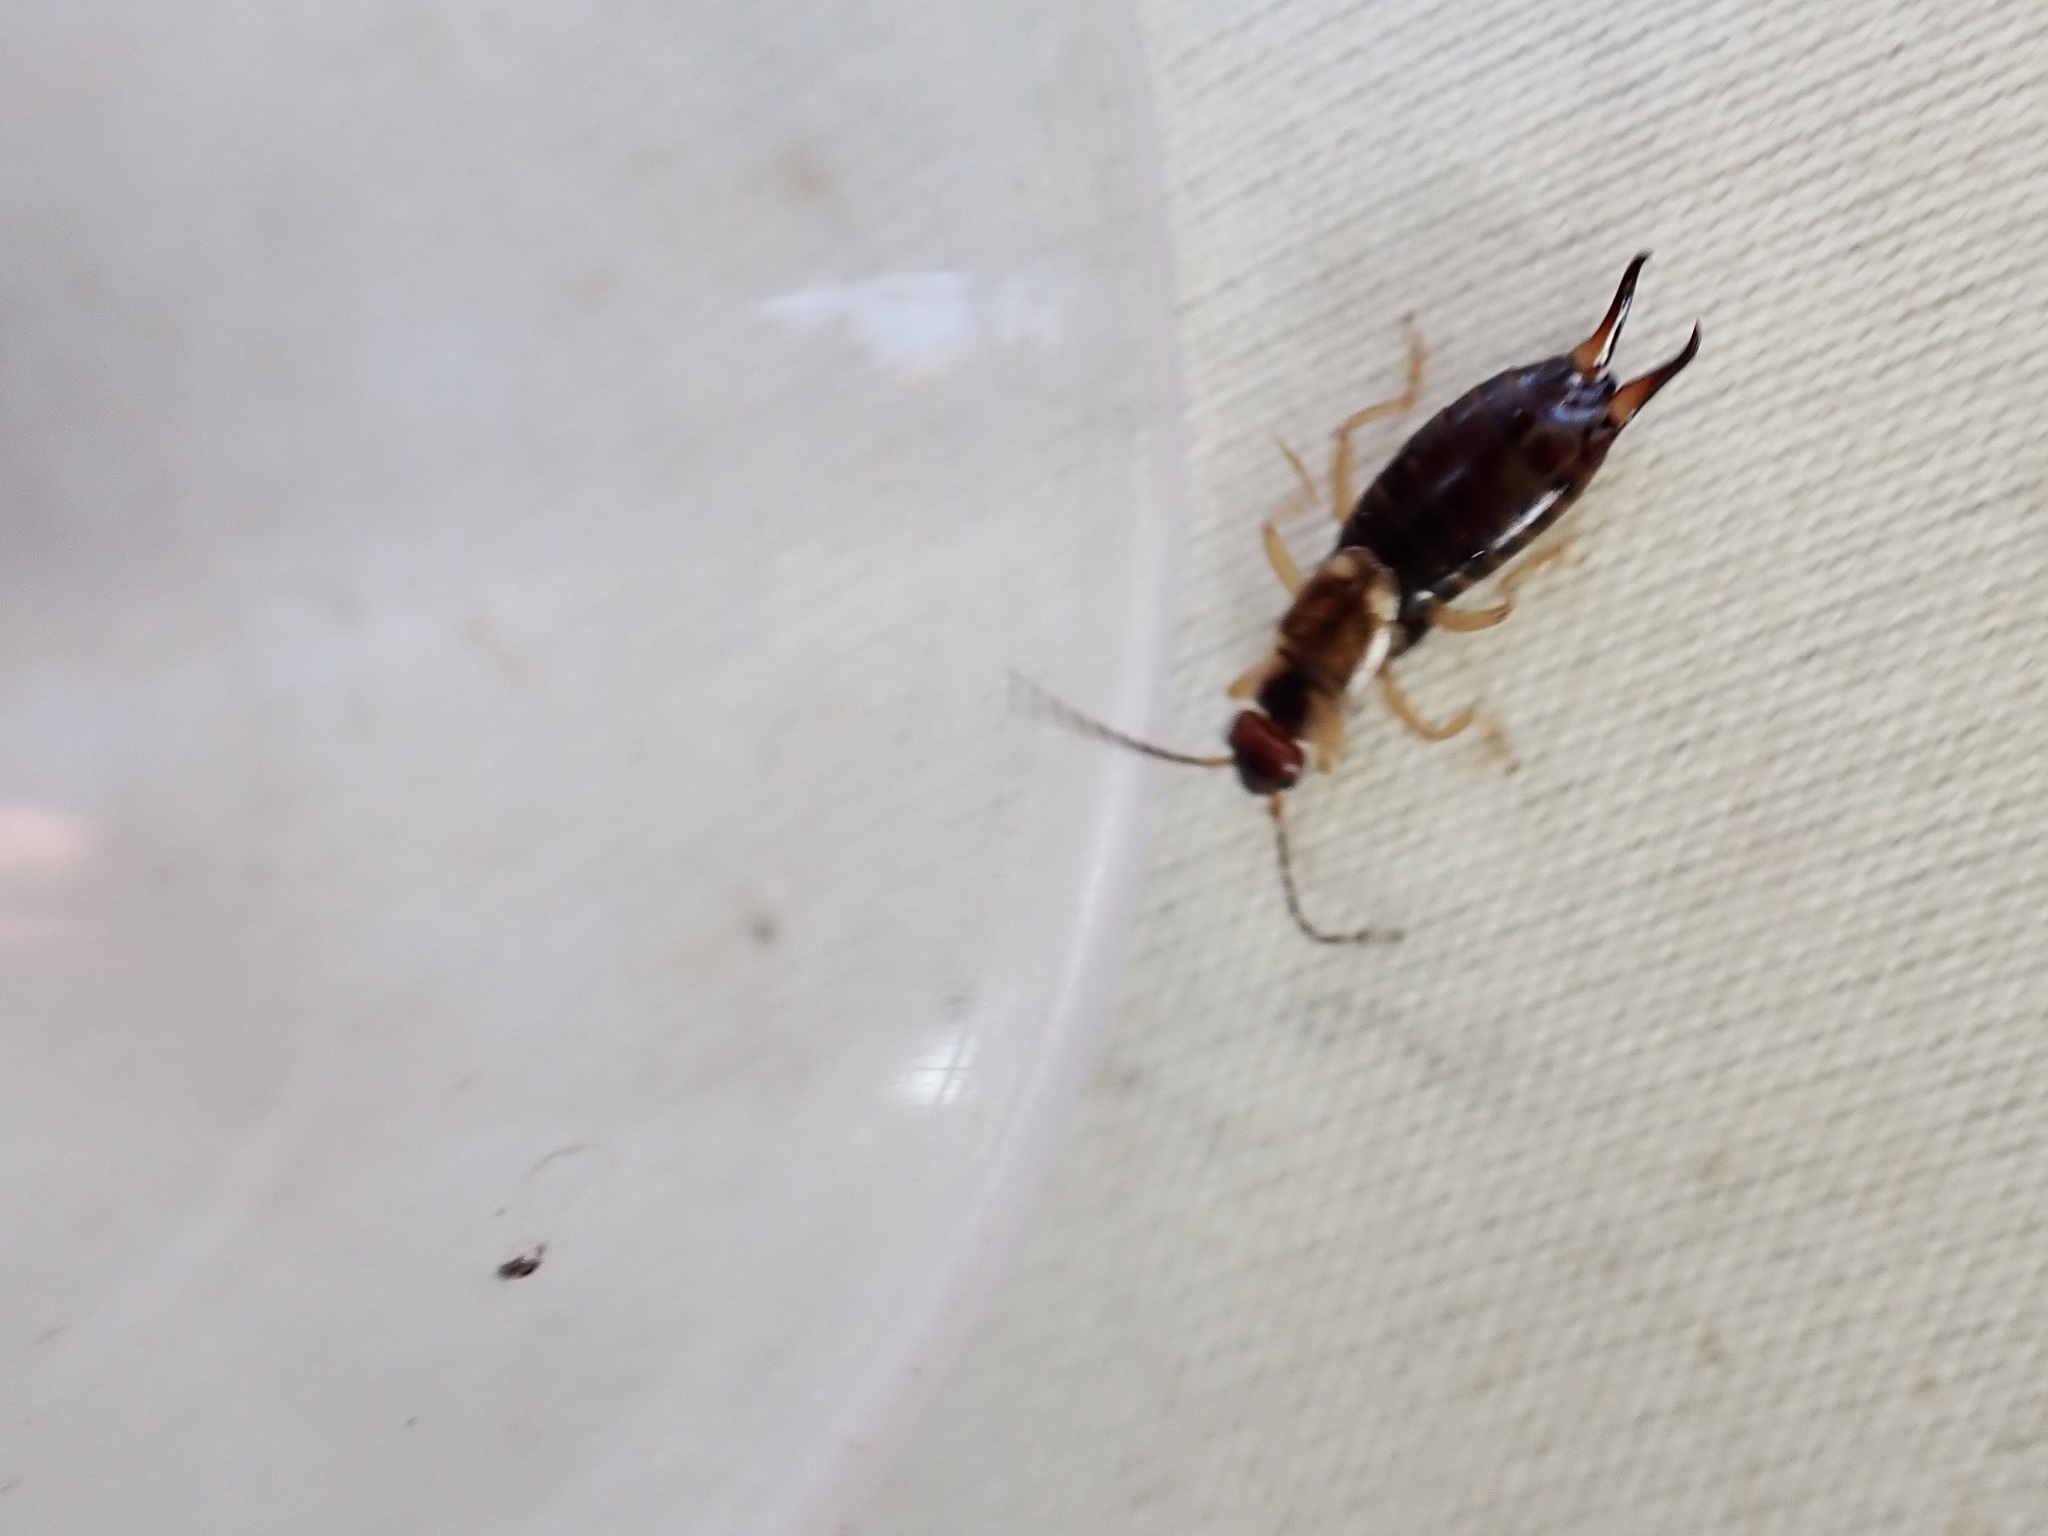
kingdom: Animalia
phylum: Arthropoda
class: Insecta
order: Dermaptera
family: Forficulidae
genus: Forficula
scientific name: Forficula
